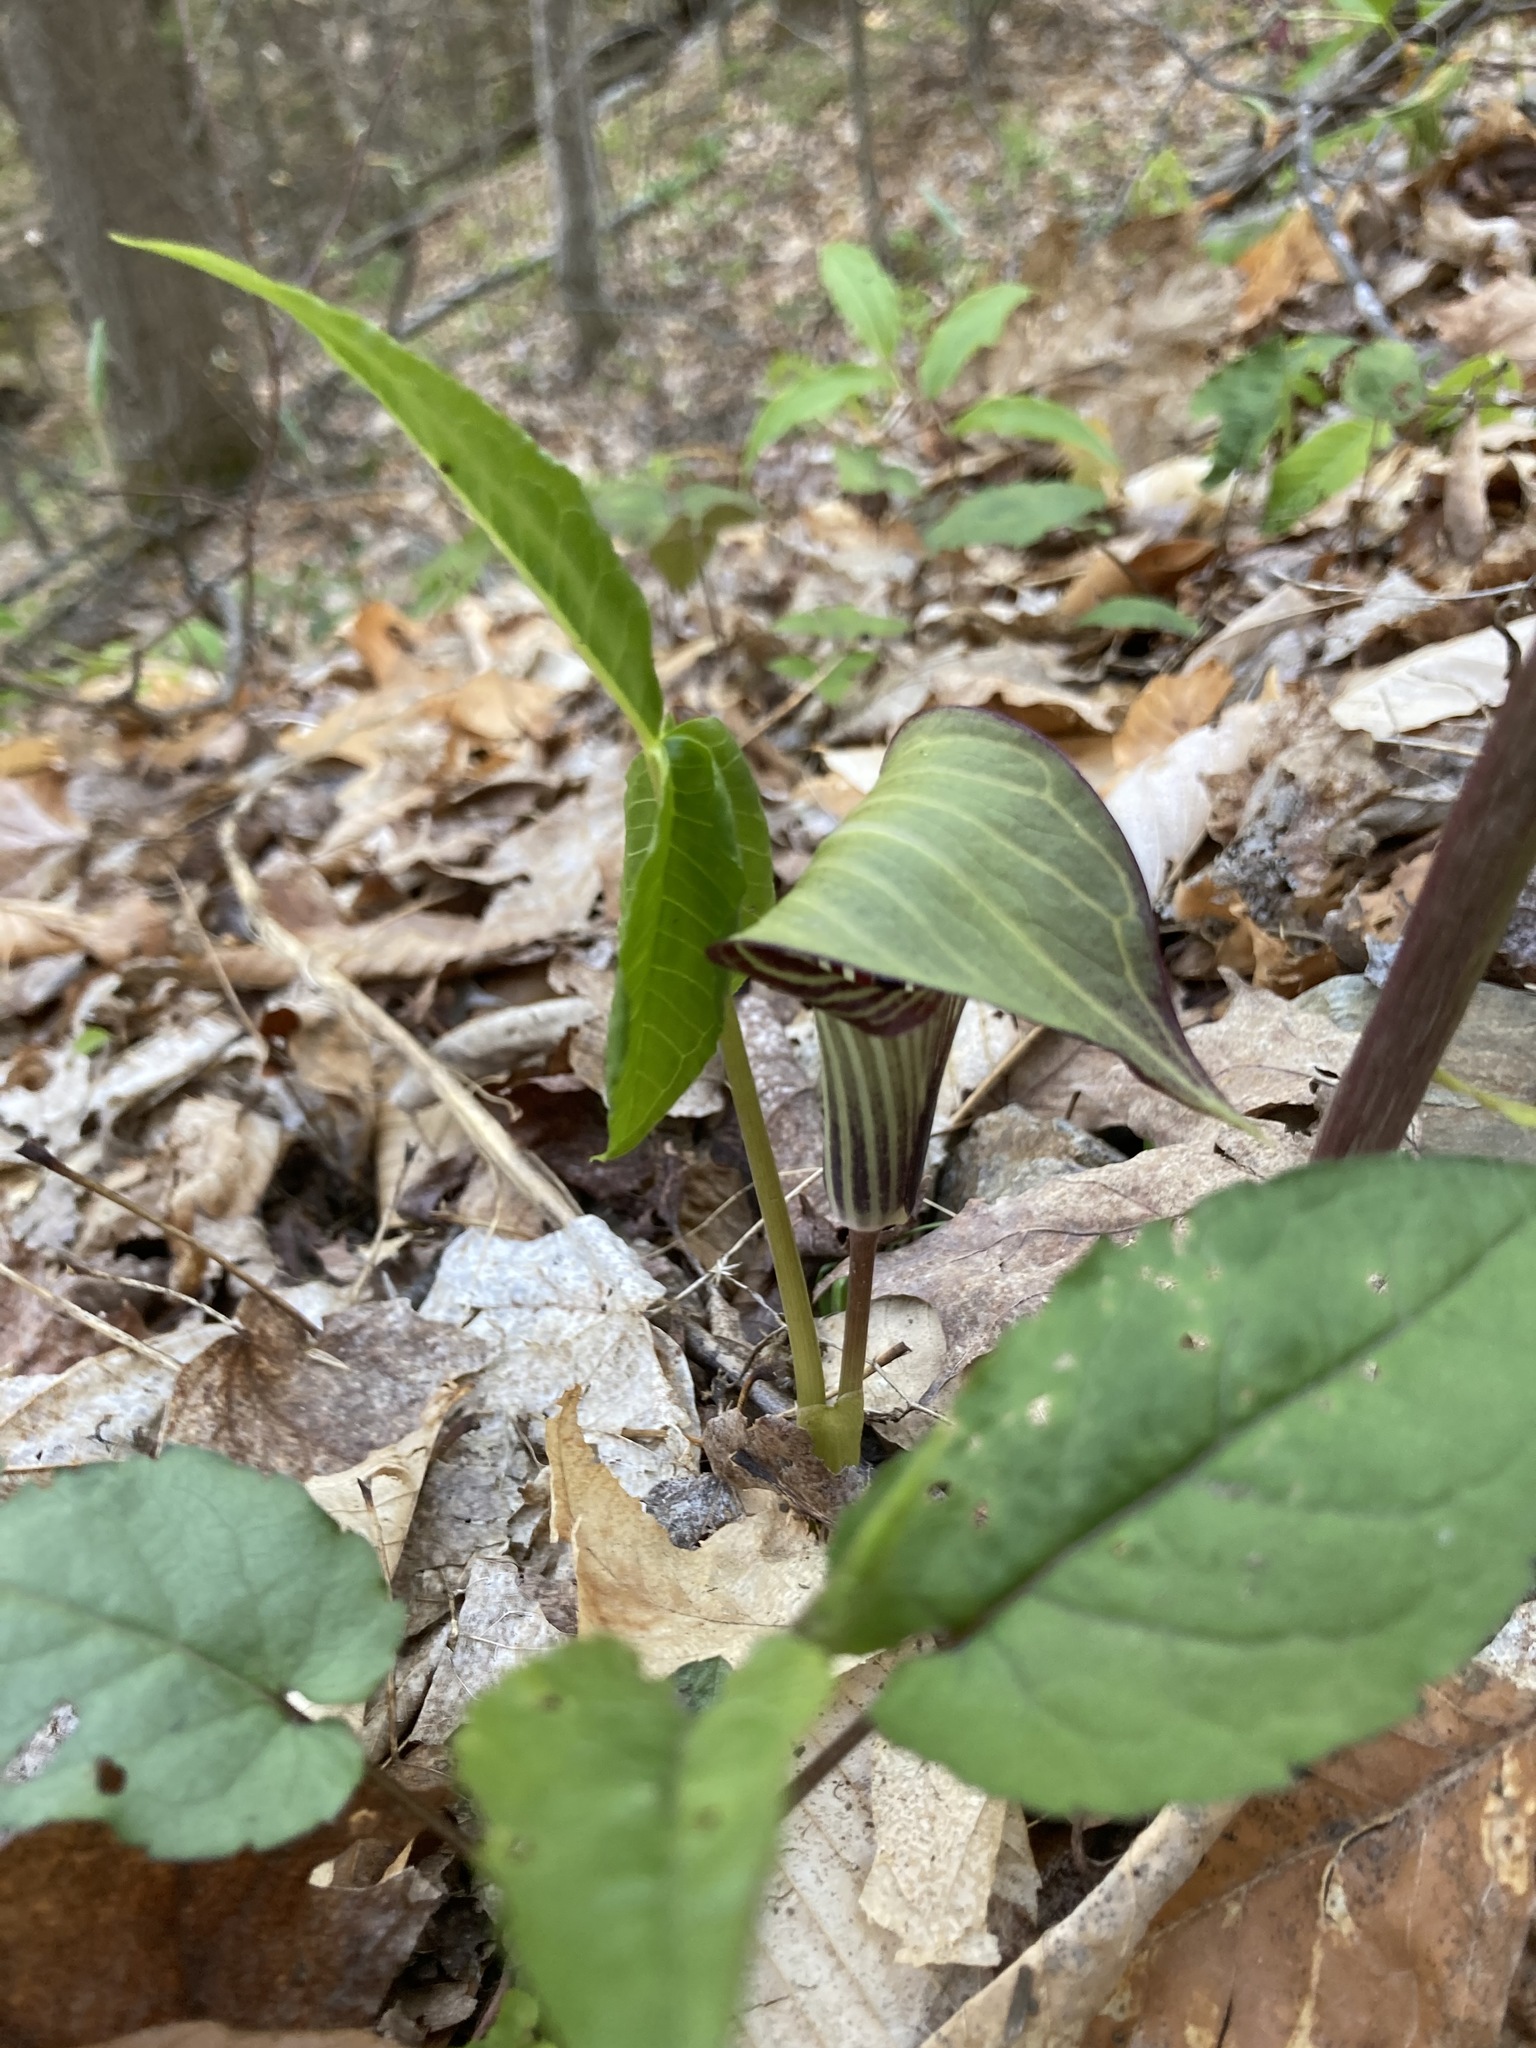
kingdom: Plantae
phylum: Tracheophyta
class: Liliopsida
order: Alismatales
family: Araceae
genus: Arisaema
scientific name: Arisaema triphyllum
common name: Jack-in-the-pulpit
